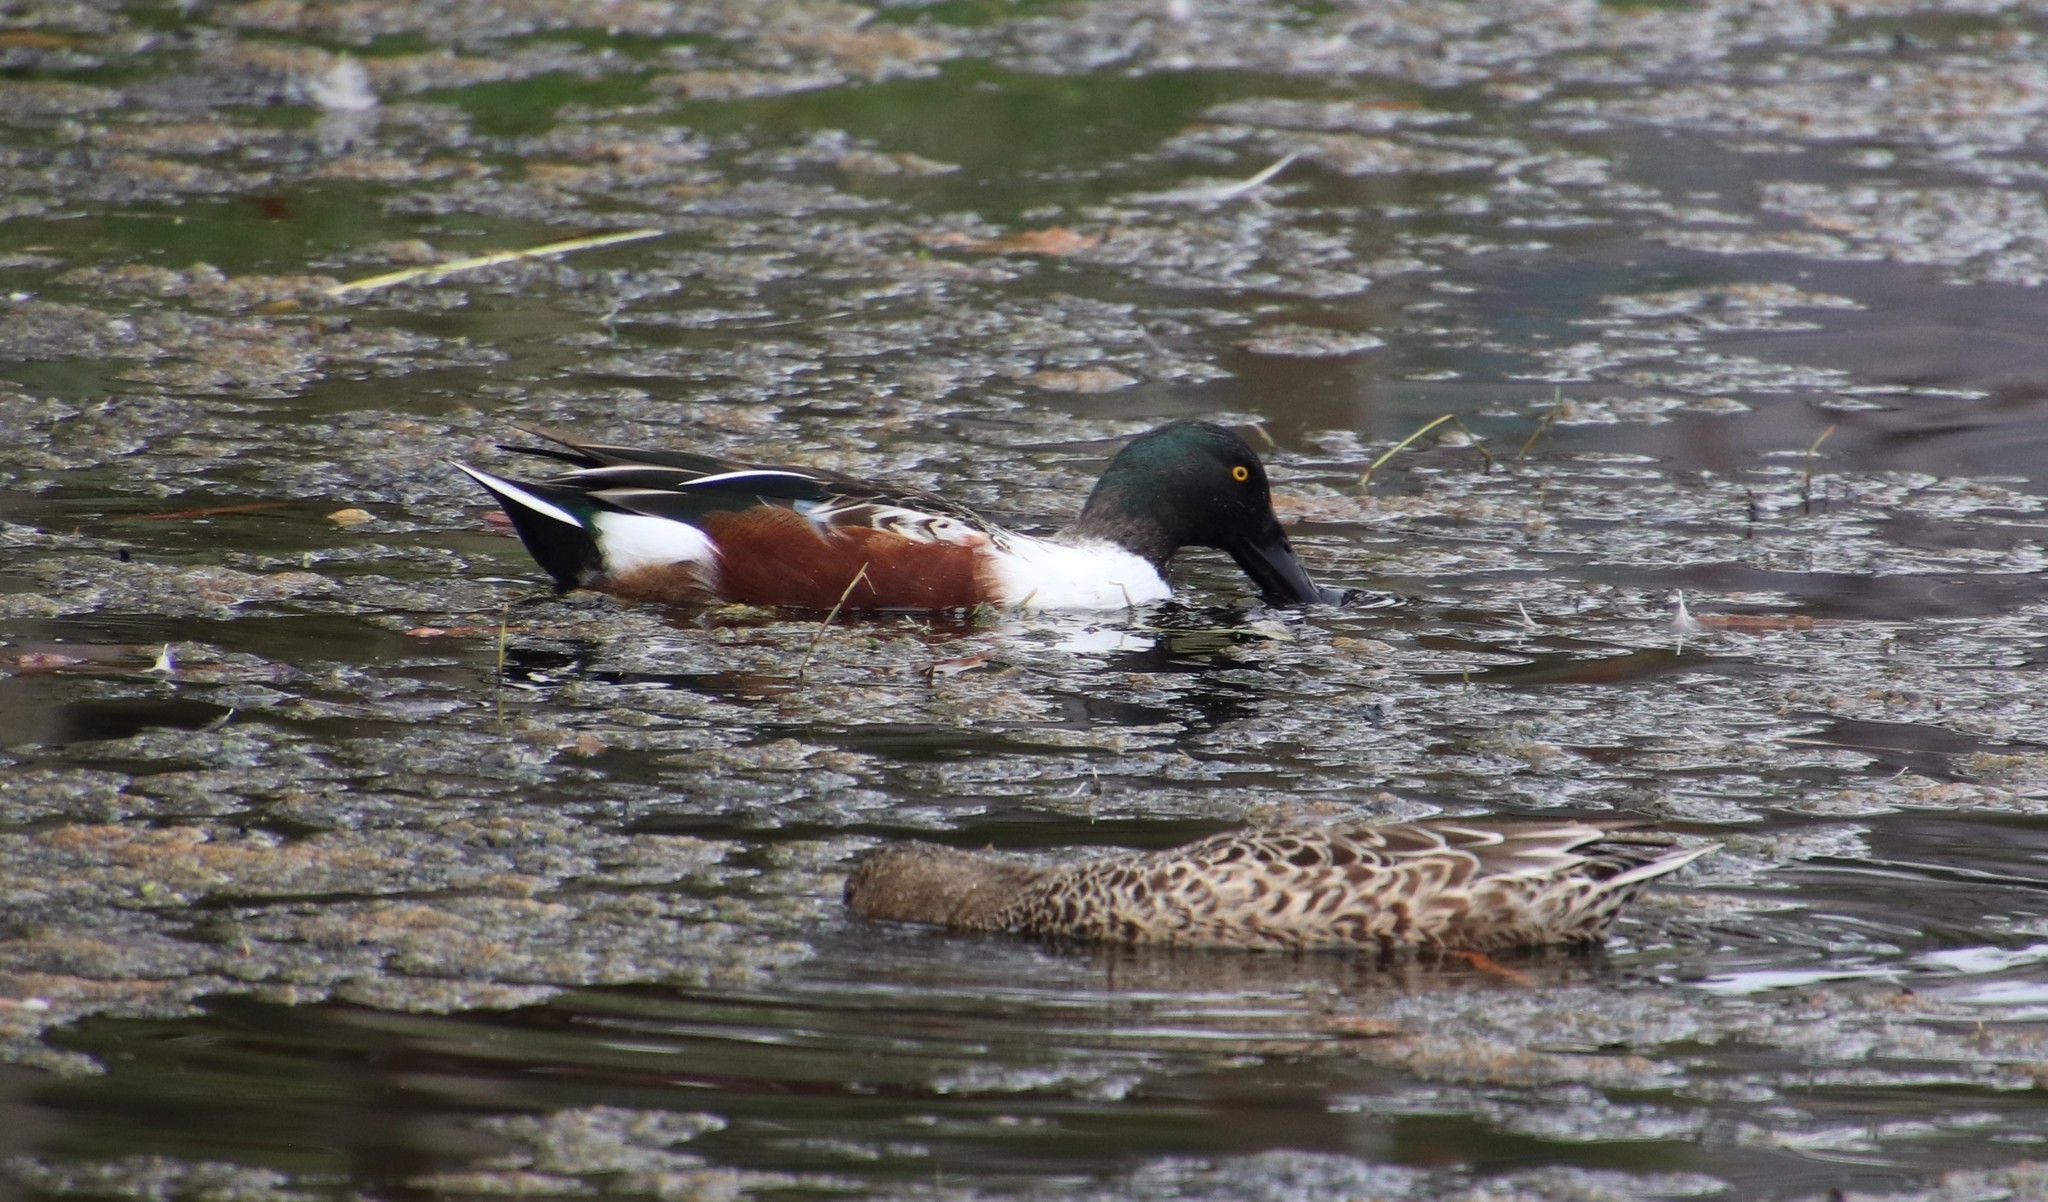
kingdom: Animalia
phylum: Chordata
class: Aves
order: Anseriformes
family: Anatidae
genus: Spatula
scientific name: Spatula clypeata
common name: Northern shoveler
